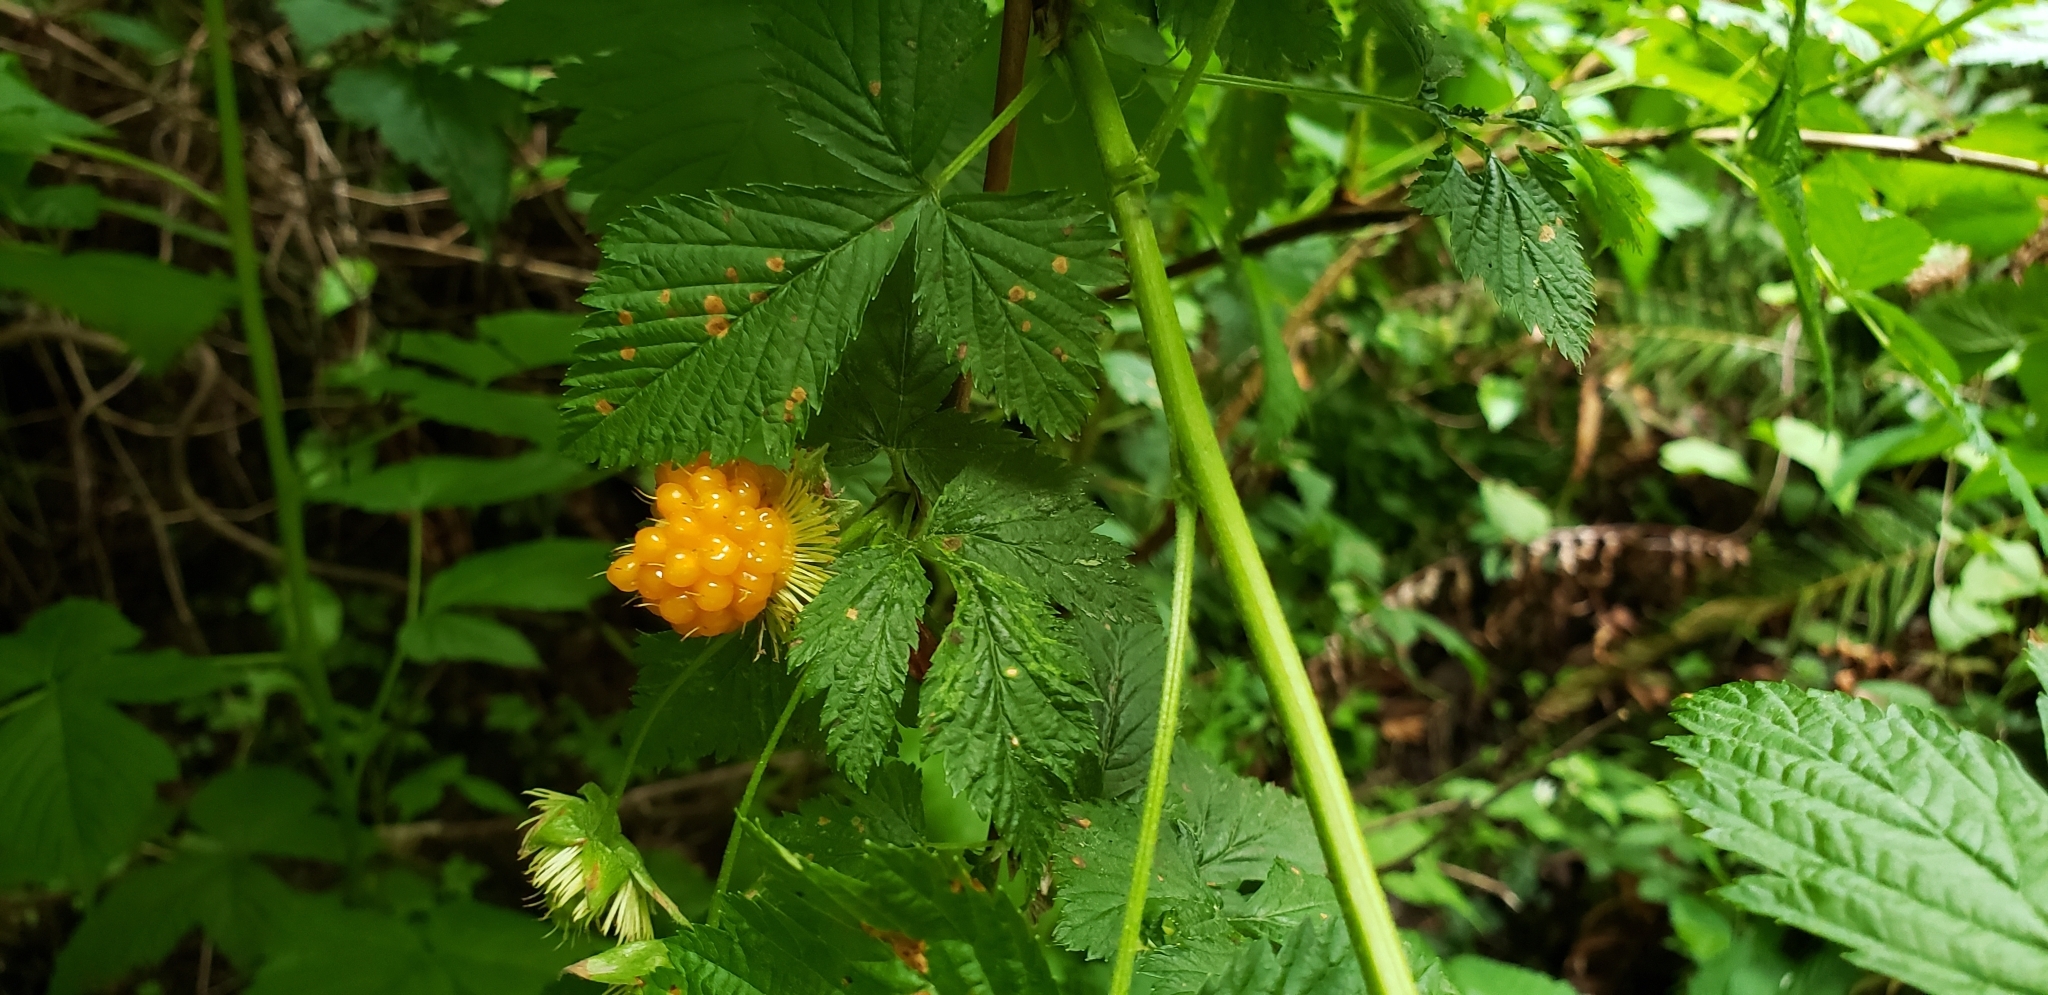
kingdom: Plantae
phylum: Tracheophyta
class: Magnoliopsida
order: Rosales
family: Rosaceae
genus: Rubus
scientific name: Rubus spectabilis
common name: Salmonberry
